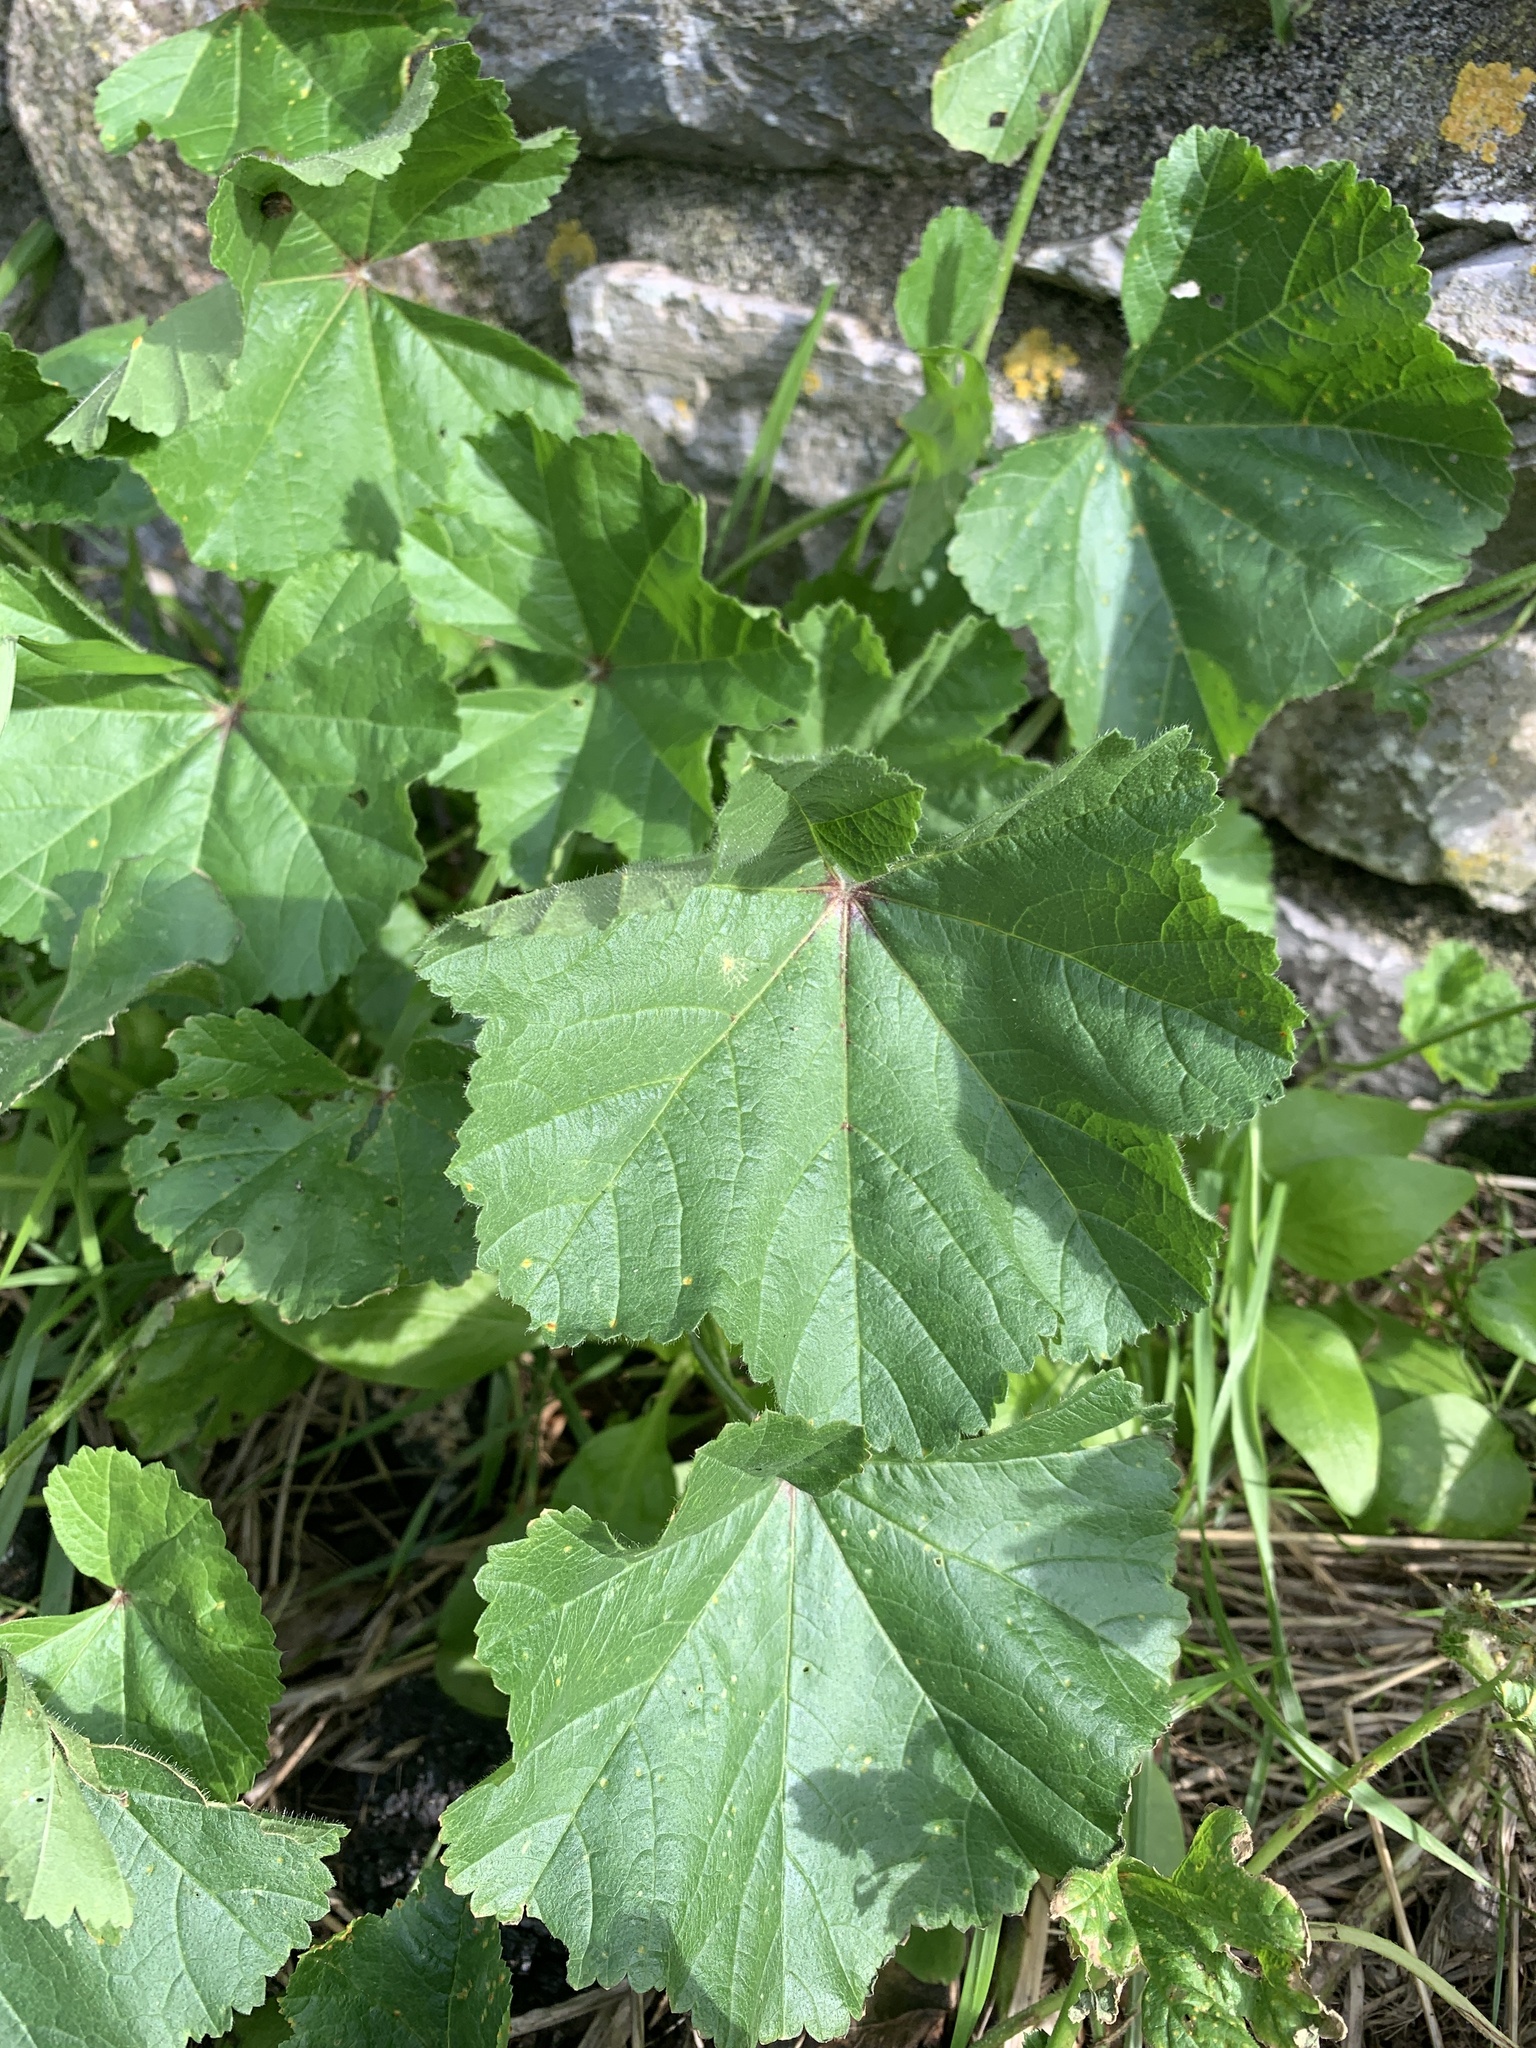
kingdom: Plantae
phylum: Tracheophyta
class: Magnoliopsida
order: Malvales
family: Malvaceae
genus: Malva
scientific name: Malva sylvestris
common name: Common mallow
